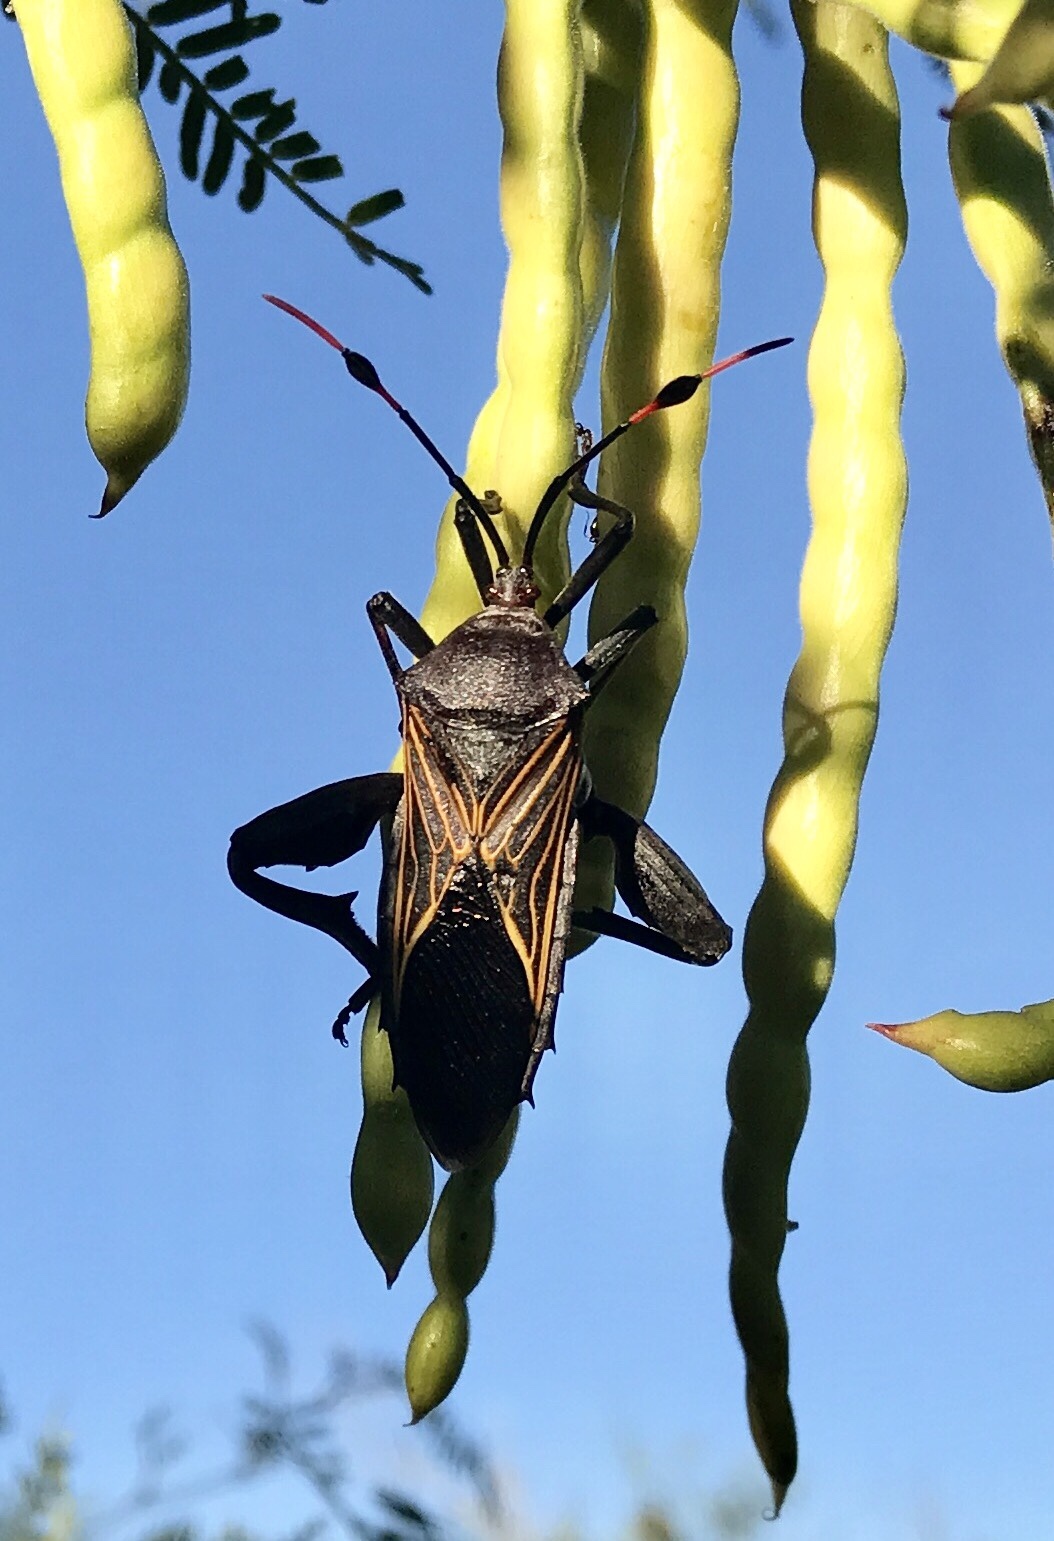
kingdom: Animalia
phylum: Arthropoda
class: Insecta
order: Hemiptera
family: Coreidae
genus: Thasus
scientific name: Thasus neocalifornicus
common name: Giant mesquite bug
